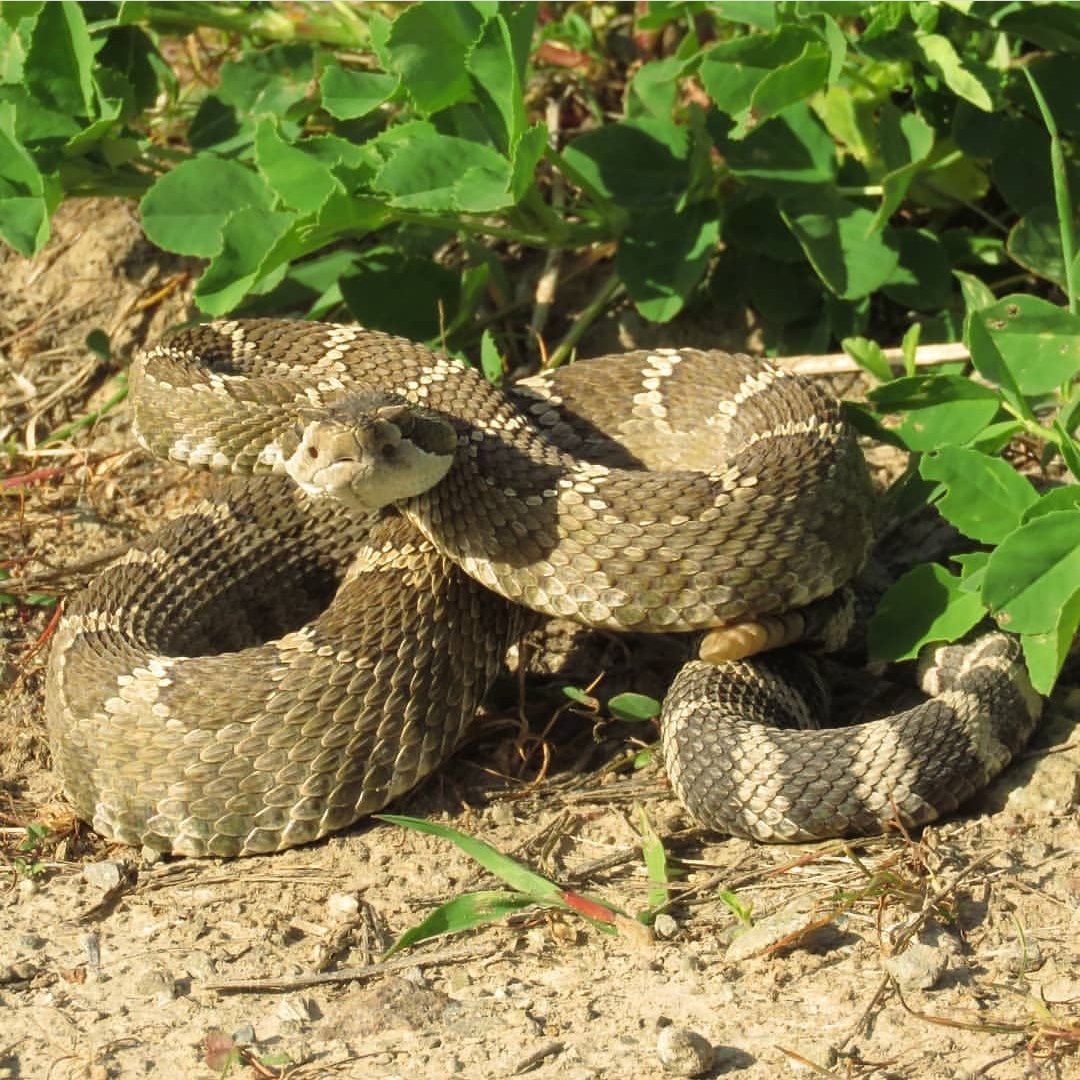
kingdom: Animalia
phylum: Chordata
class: Squamata
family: Viperidae
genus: Crotalus
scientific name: Crotalus oreganus
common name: Abyssus
